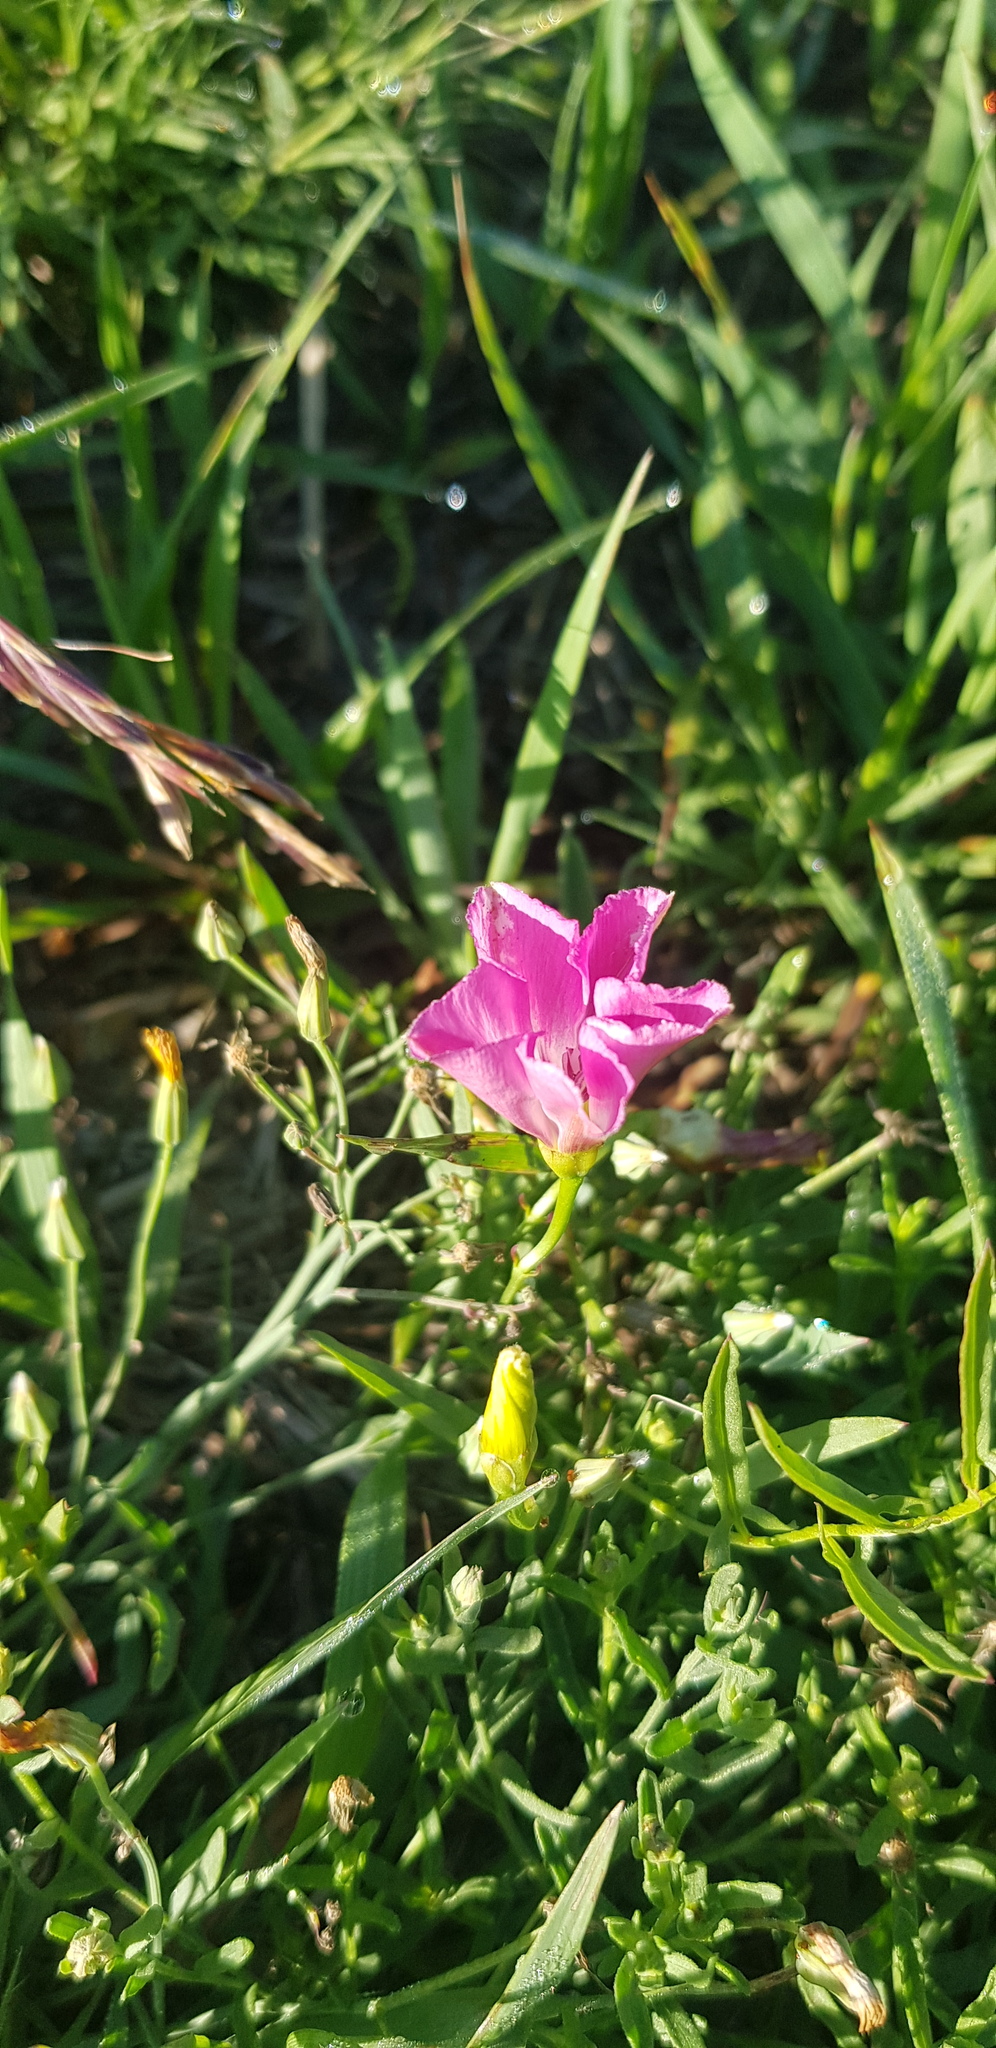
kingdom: Plantae
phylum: Tracheophyta
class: Magnoliopsida
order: Solanales
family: Convolvulaceae
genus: Convolvulus
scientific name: Convolvulus arvensis
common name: Field bindweed
